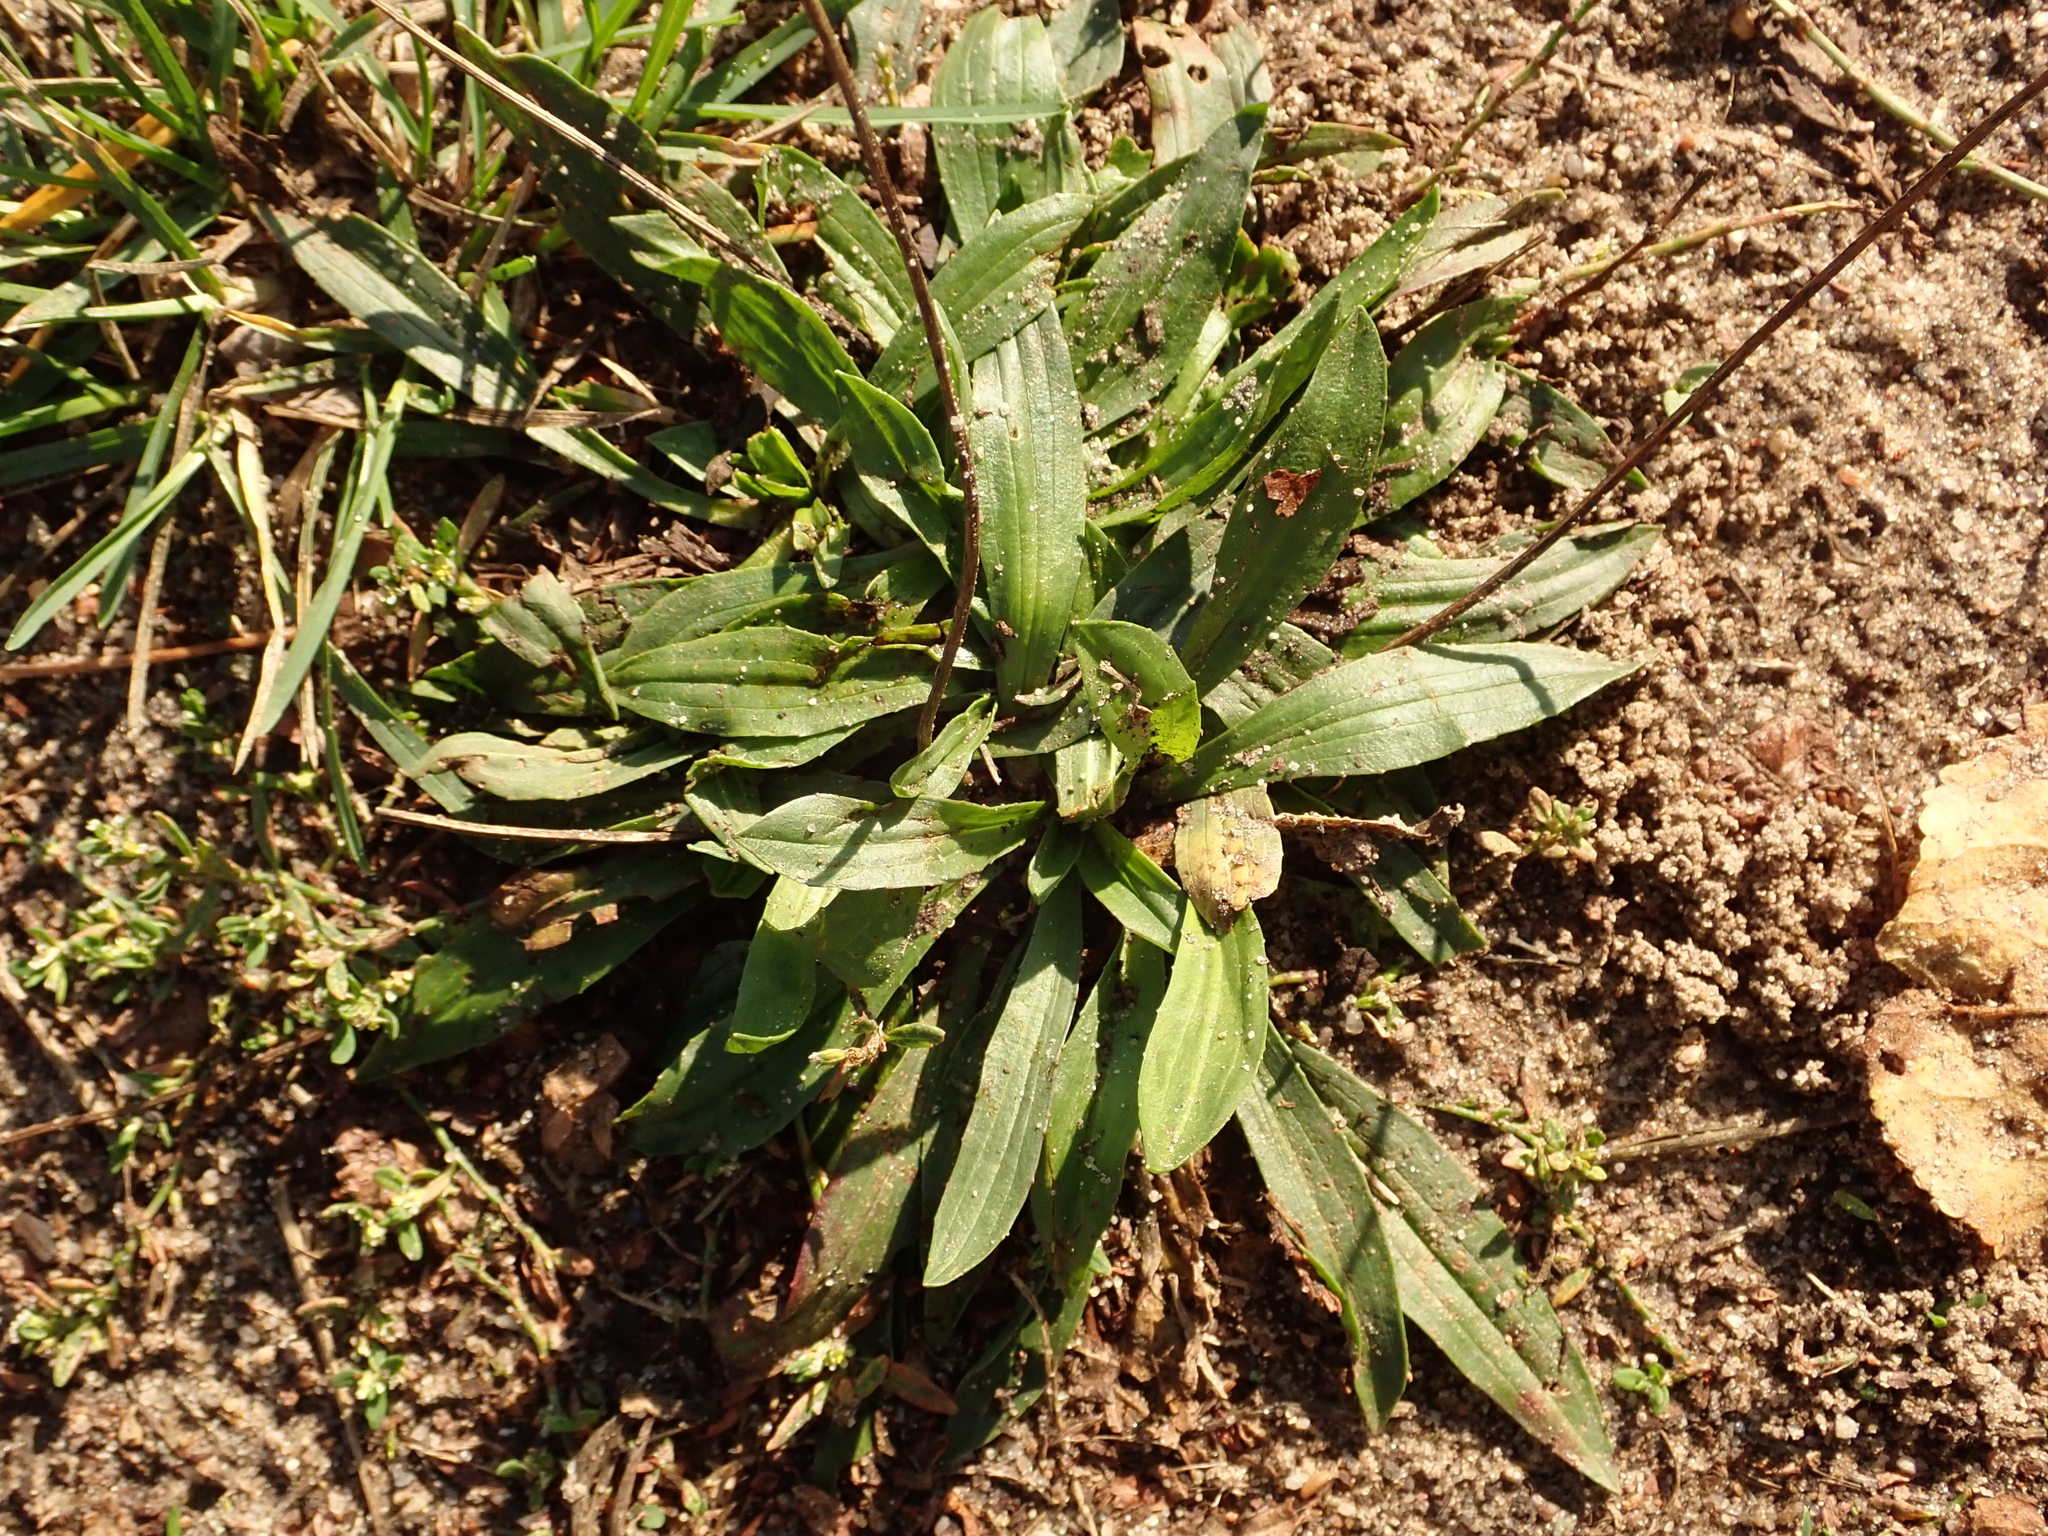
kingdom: Plantae
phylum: Tracheophyta
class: Magnoliopsida
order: Lamiales
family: Plantaginaceae
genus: Plantago
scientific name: Plantago lanceolata
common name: Ribwort plantain
